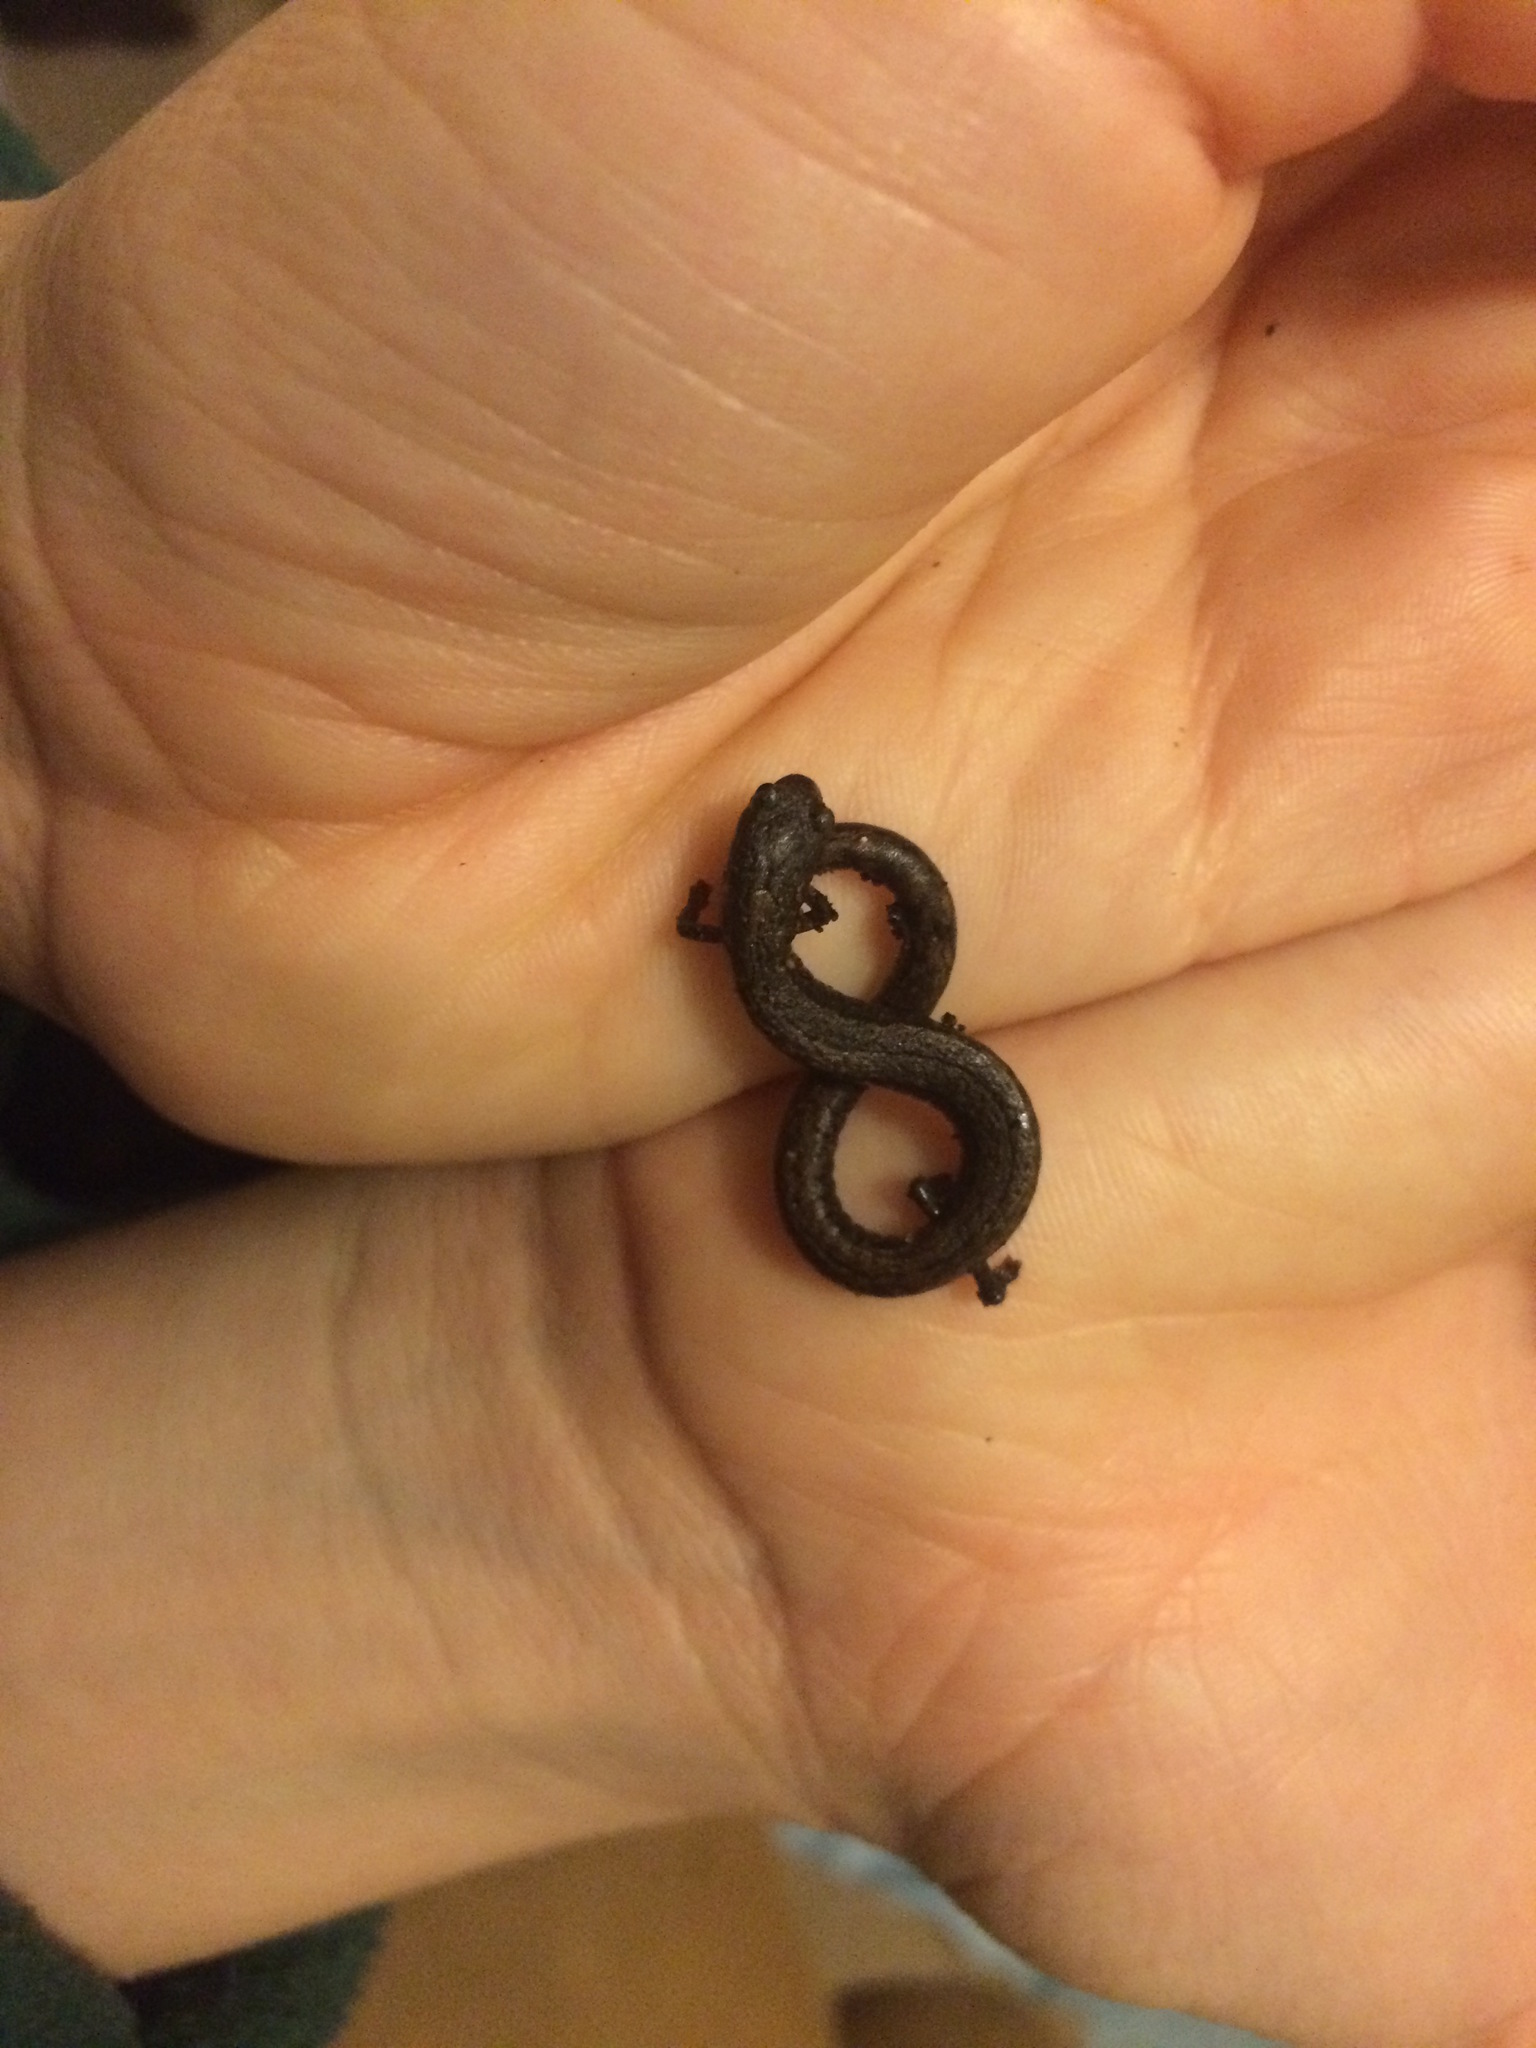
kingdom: Animalia
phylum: Chordata
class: Amphibia
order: Caudata
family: Plethodontidae
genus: Batrachoseps
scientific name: Batrachoseps attenuatus
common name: California slender salamander
